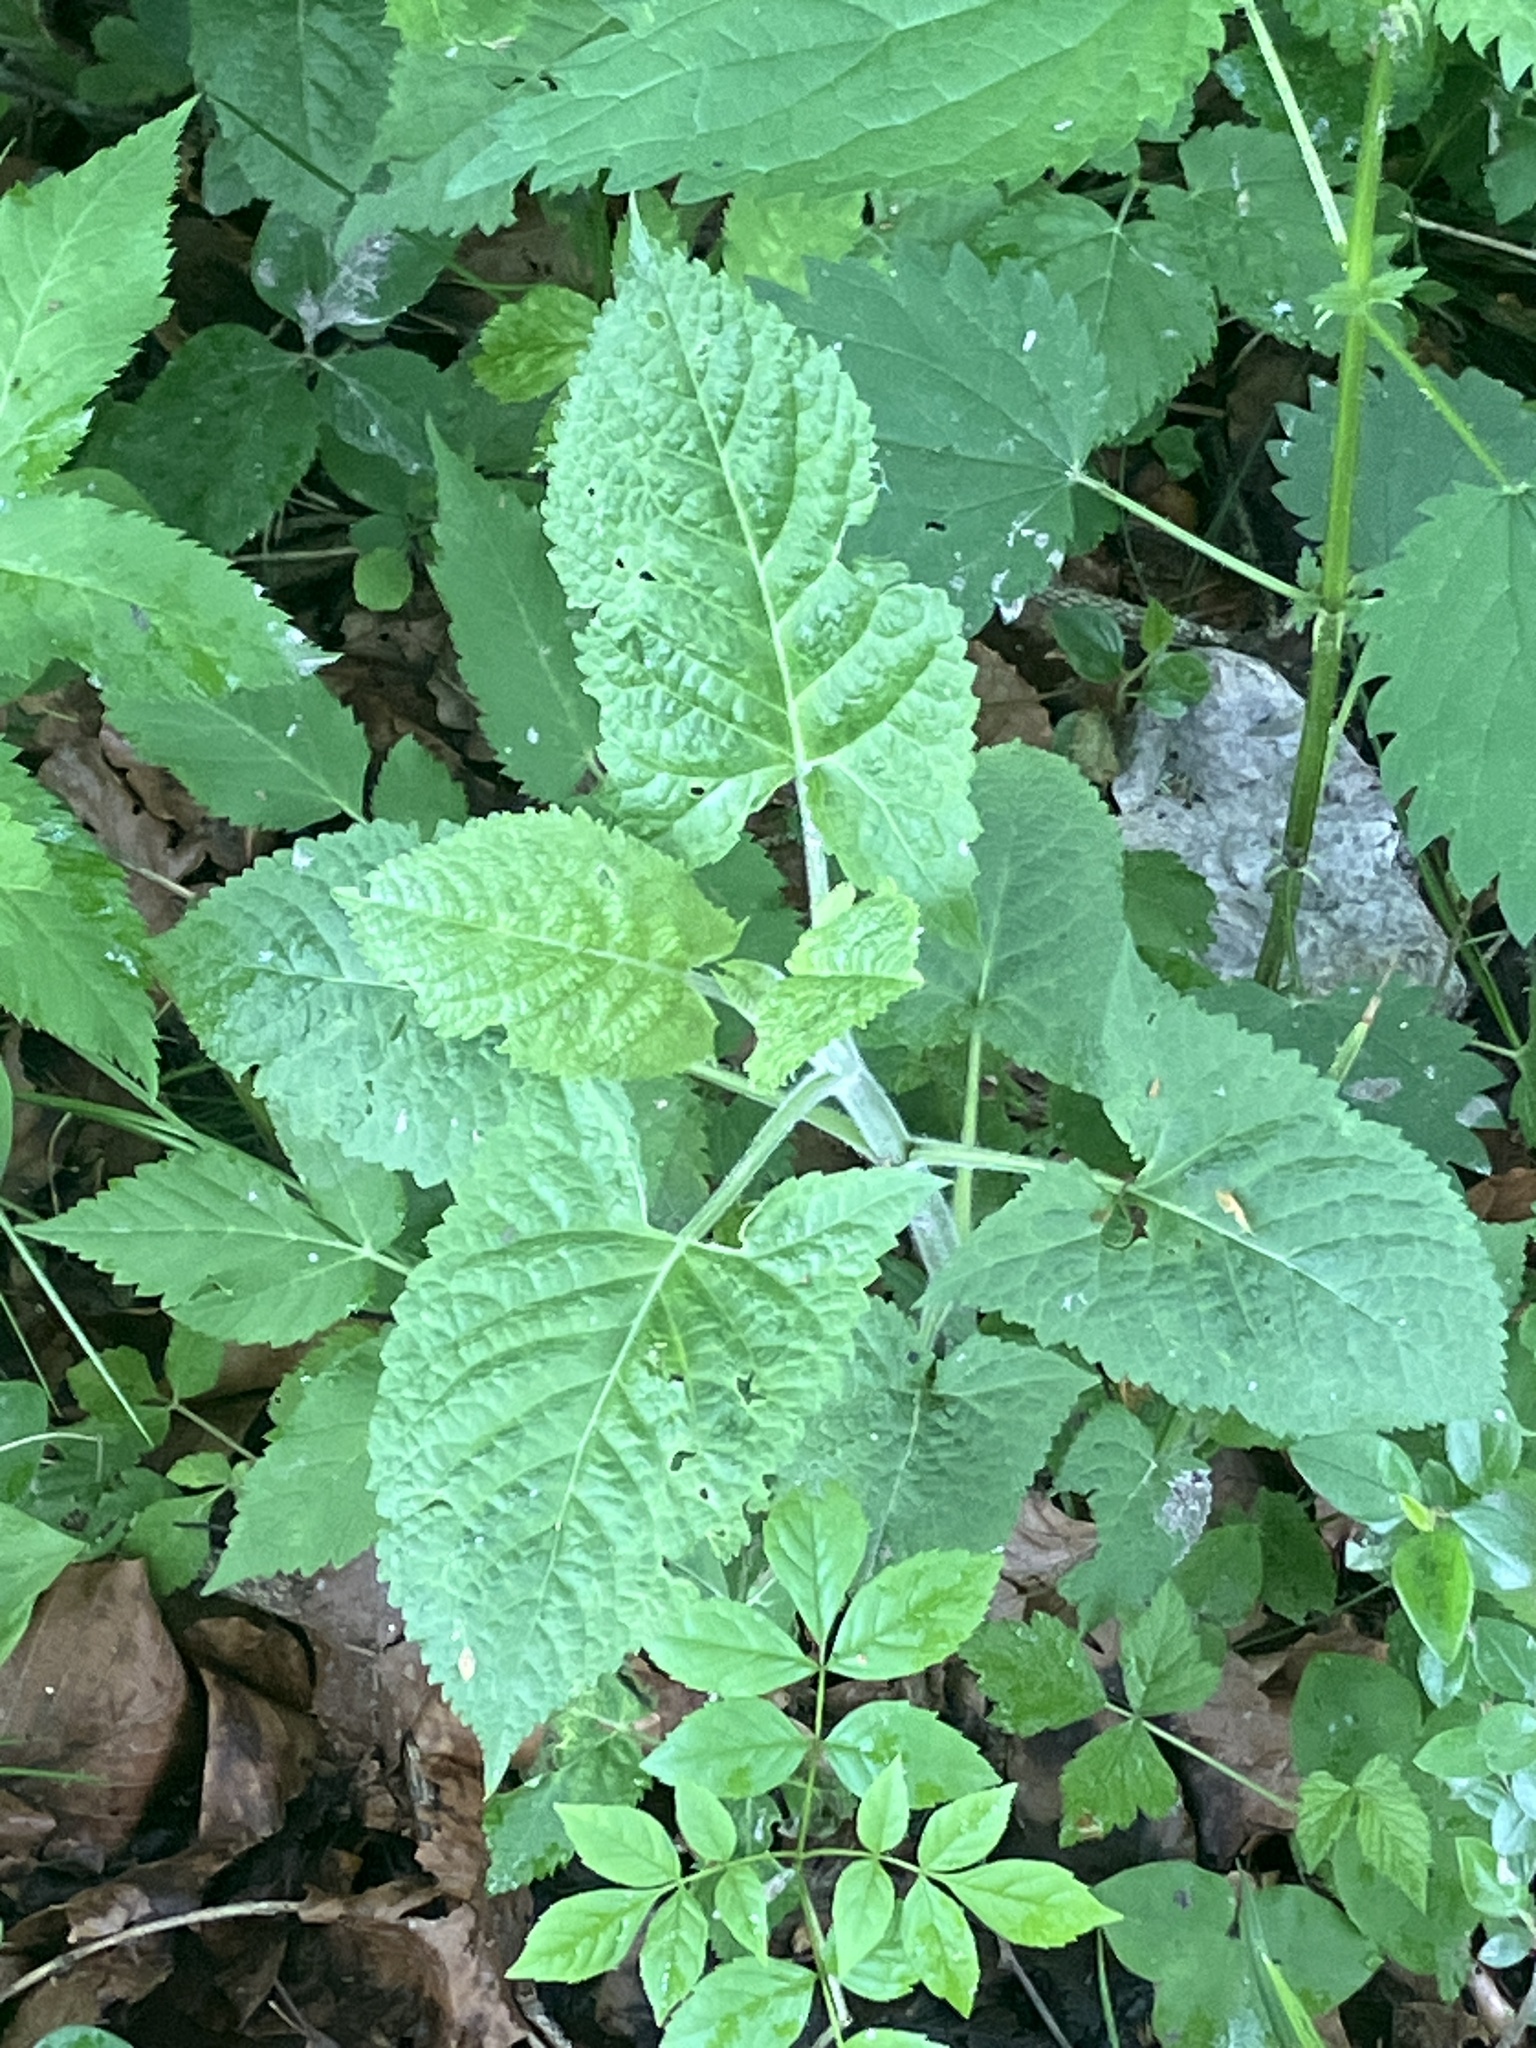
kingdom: Plantae
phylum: Tracheophyta
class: Magnoliopsida
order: Lamiales
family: Lamiaceae
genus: Salvia
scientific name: Salvia glutinosa
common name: Sticky clary
